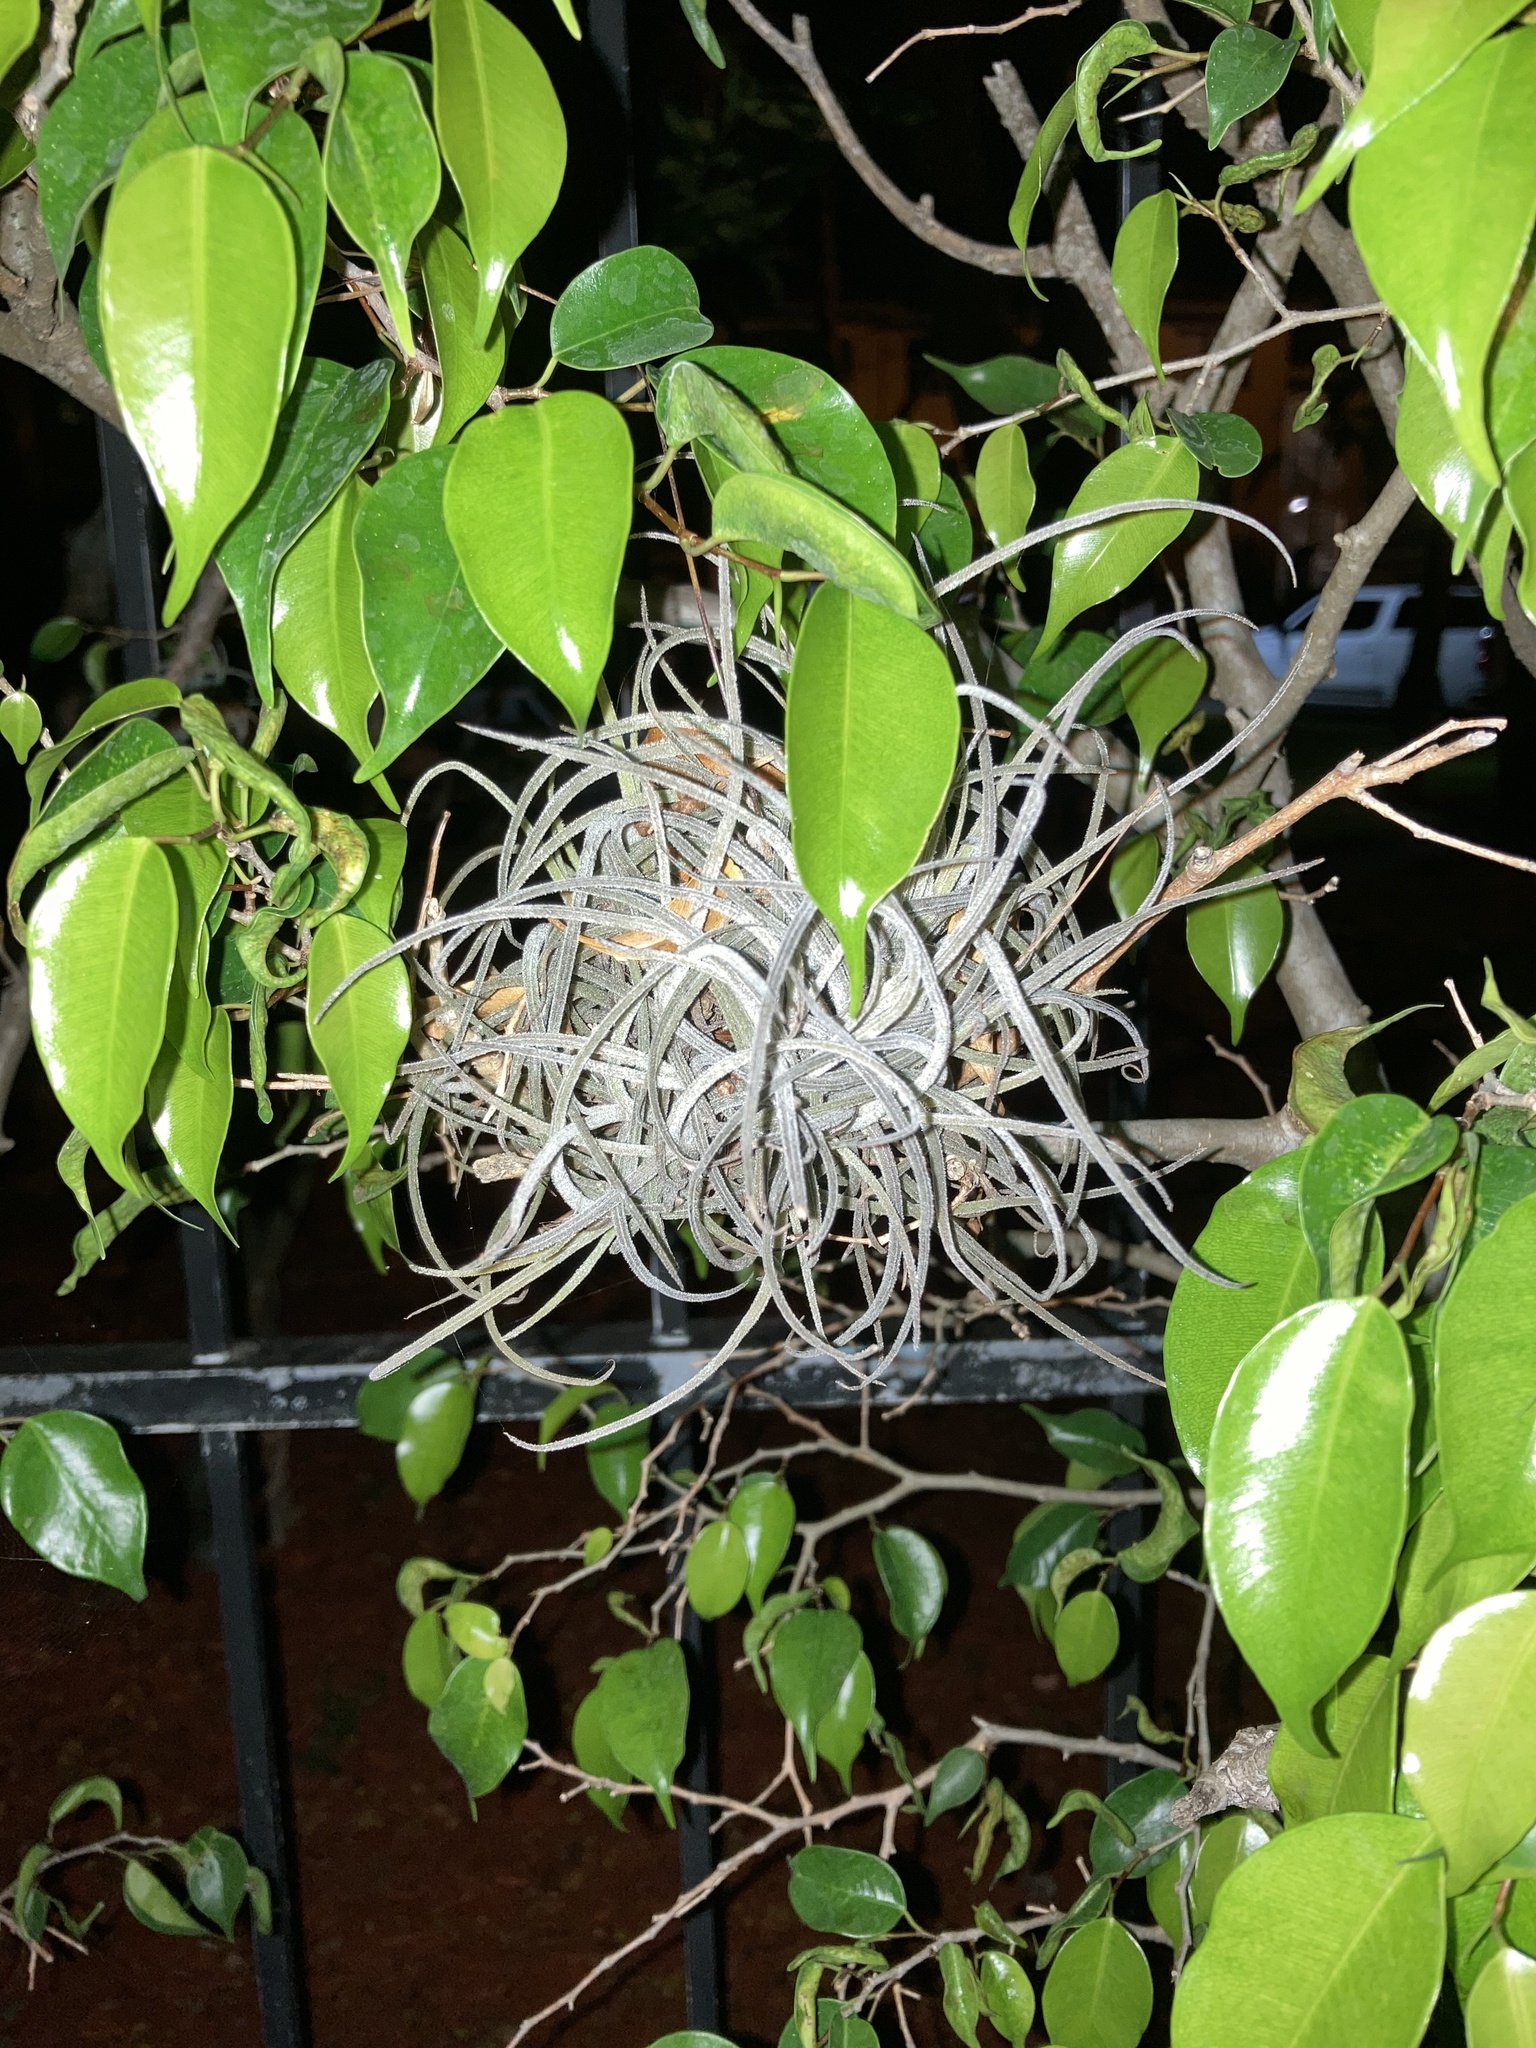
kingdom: Plantae
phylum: Tracheophyta
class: Liliopsida
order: Poales
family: Bromeliaceae
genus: Tillandsia
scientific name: Tillandsia recurvata
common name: Small ballmoss
